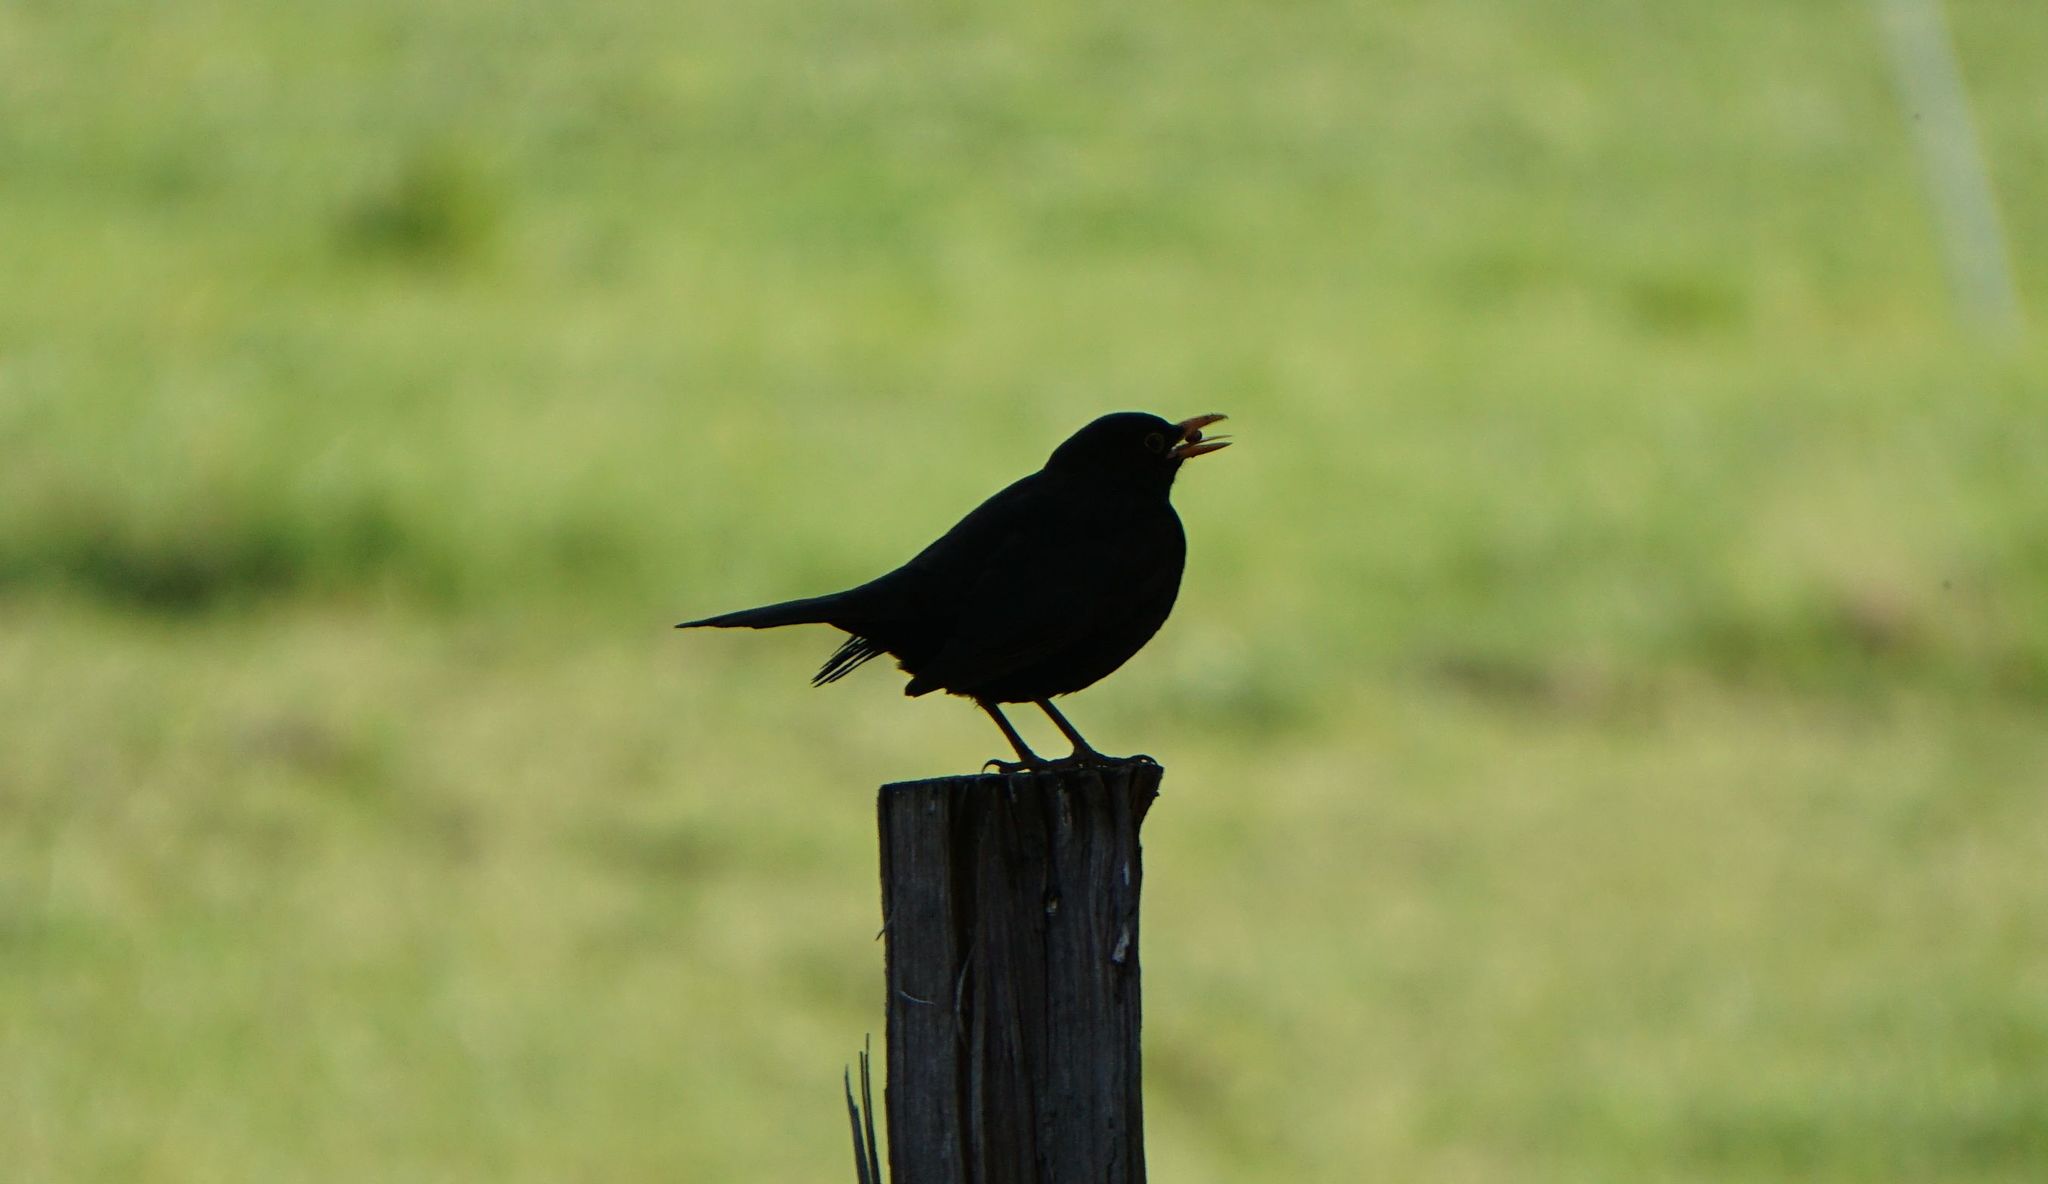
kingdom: Animalia
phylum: Chordata
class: Aves
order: Passeriformes
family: Turdidae
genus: Turdus
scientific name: Turdus merula
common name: Common blackbird
